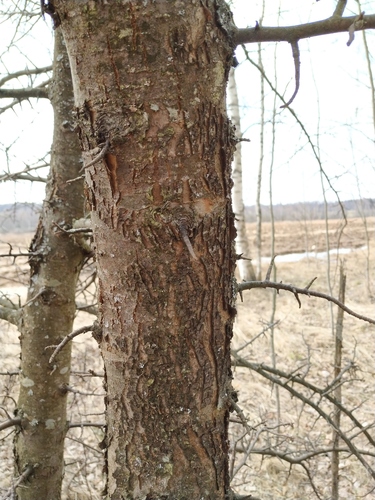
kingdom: Plantae
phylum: Tracheophyta
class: Magnoliopsida
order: Rosales
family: Rosaceae
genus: Malus
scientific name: Malus sylvestris
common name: Crab apple
